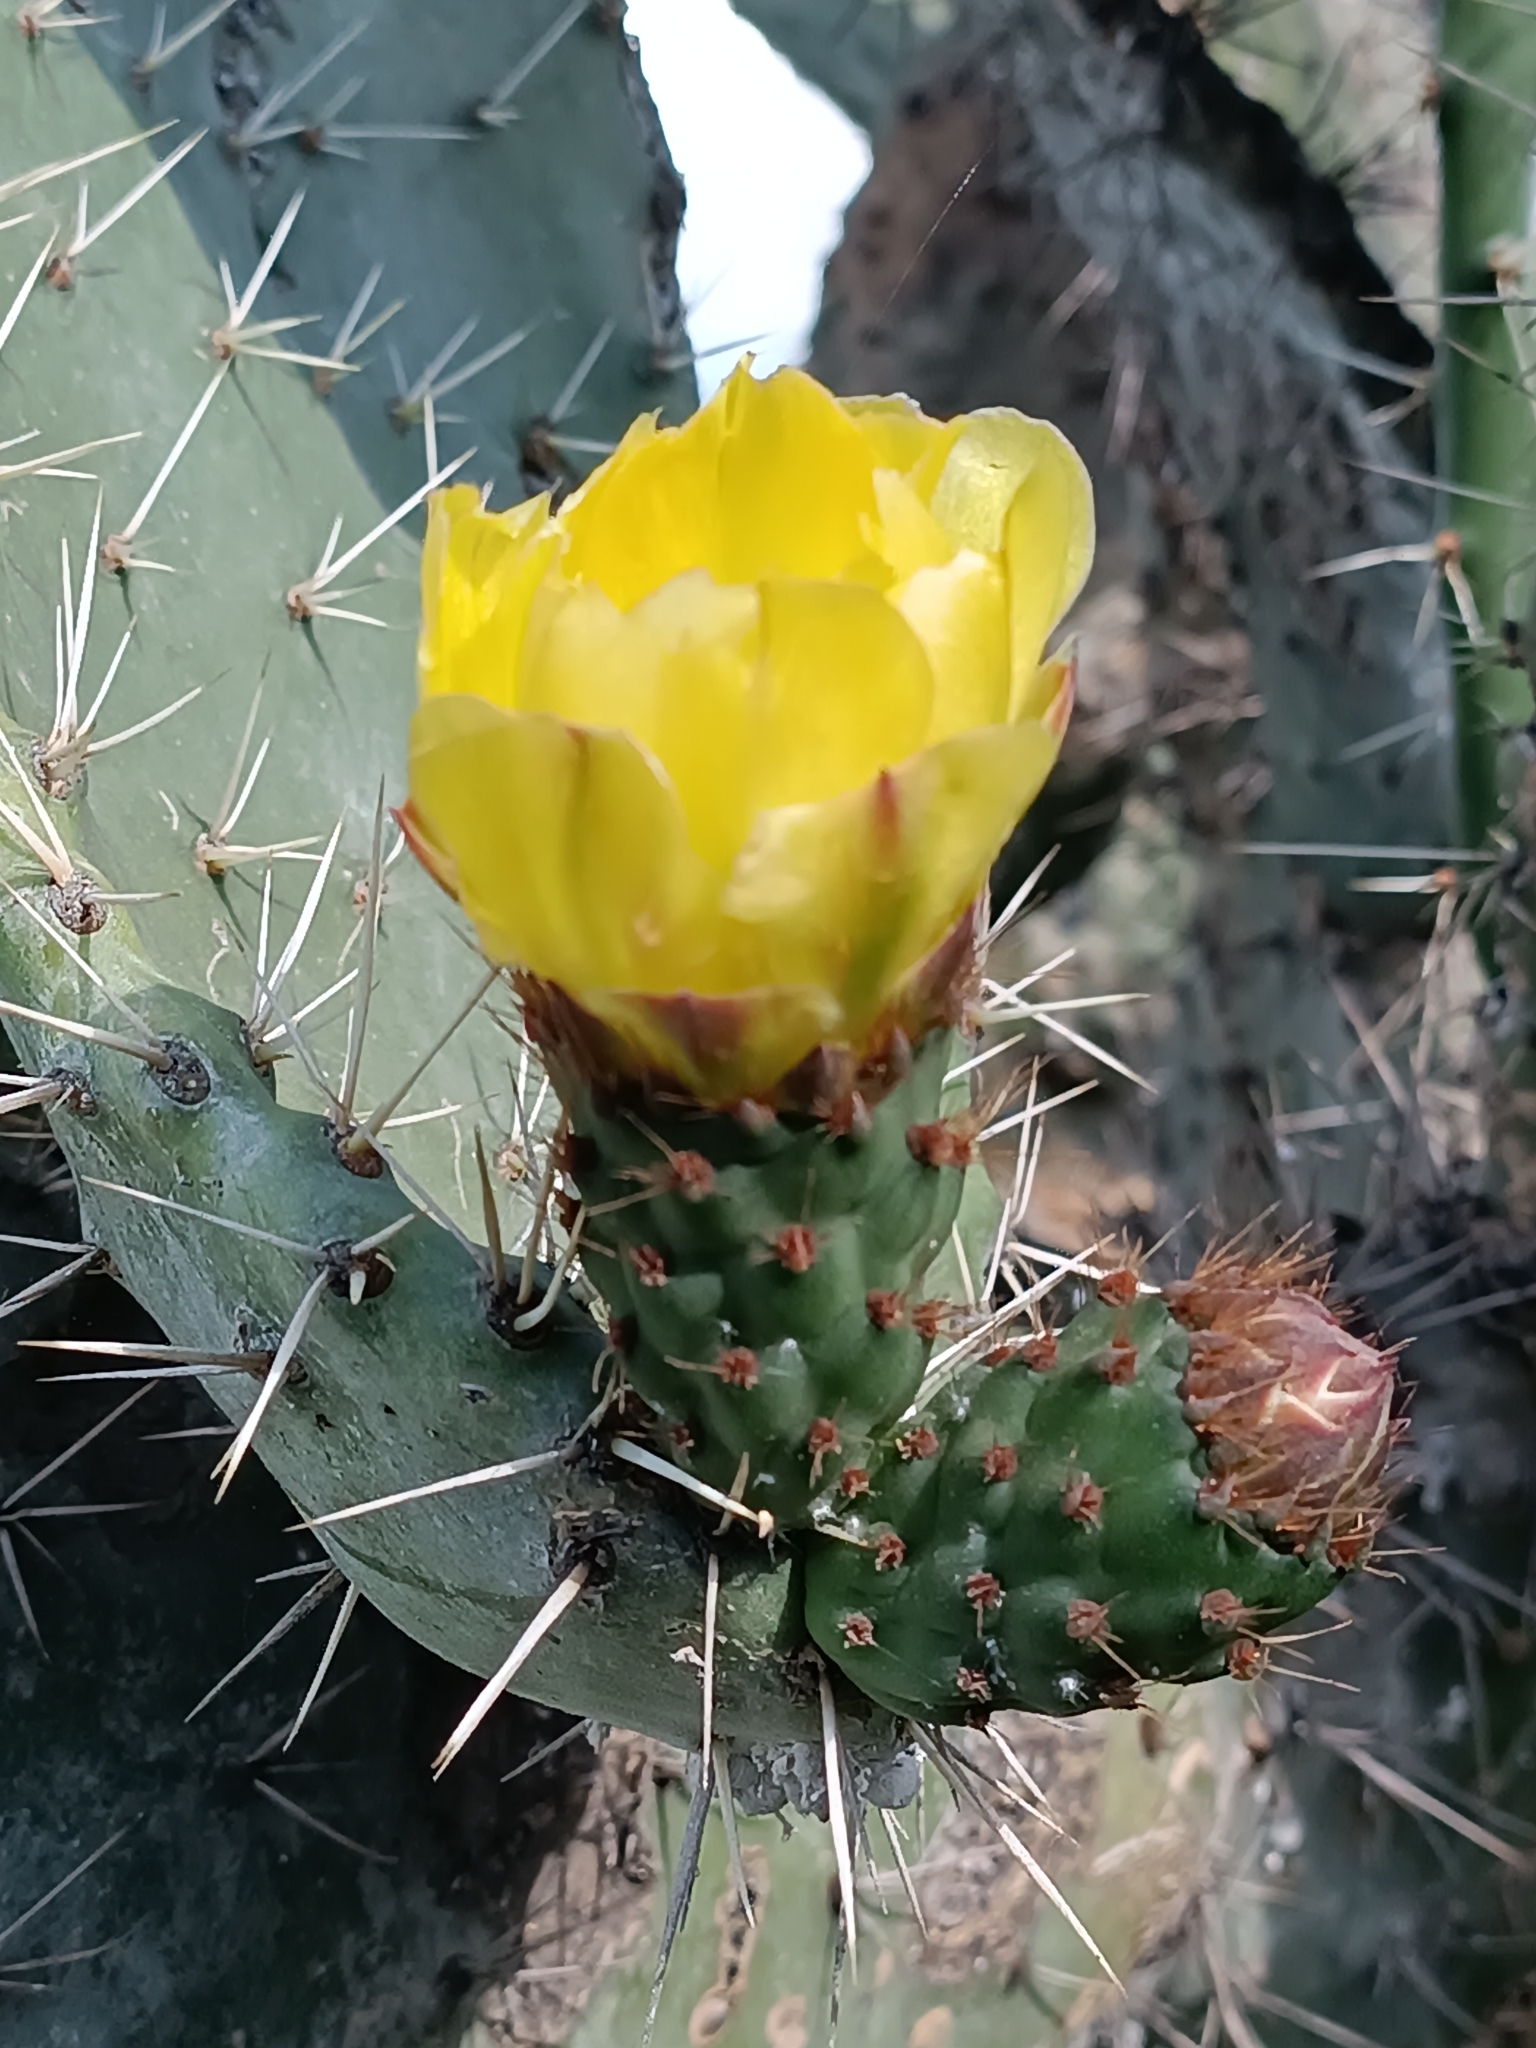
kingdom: Plantae
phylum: Tracheophyta
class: Magnoliopsida
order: Caryophyllales
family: Cactaceae
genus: Opuntia
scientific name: Opuntia ficus-indica
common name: Barbary fig
